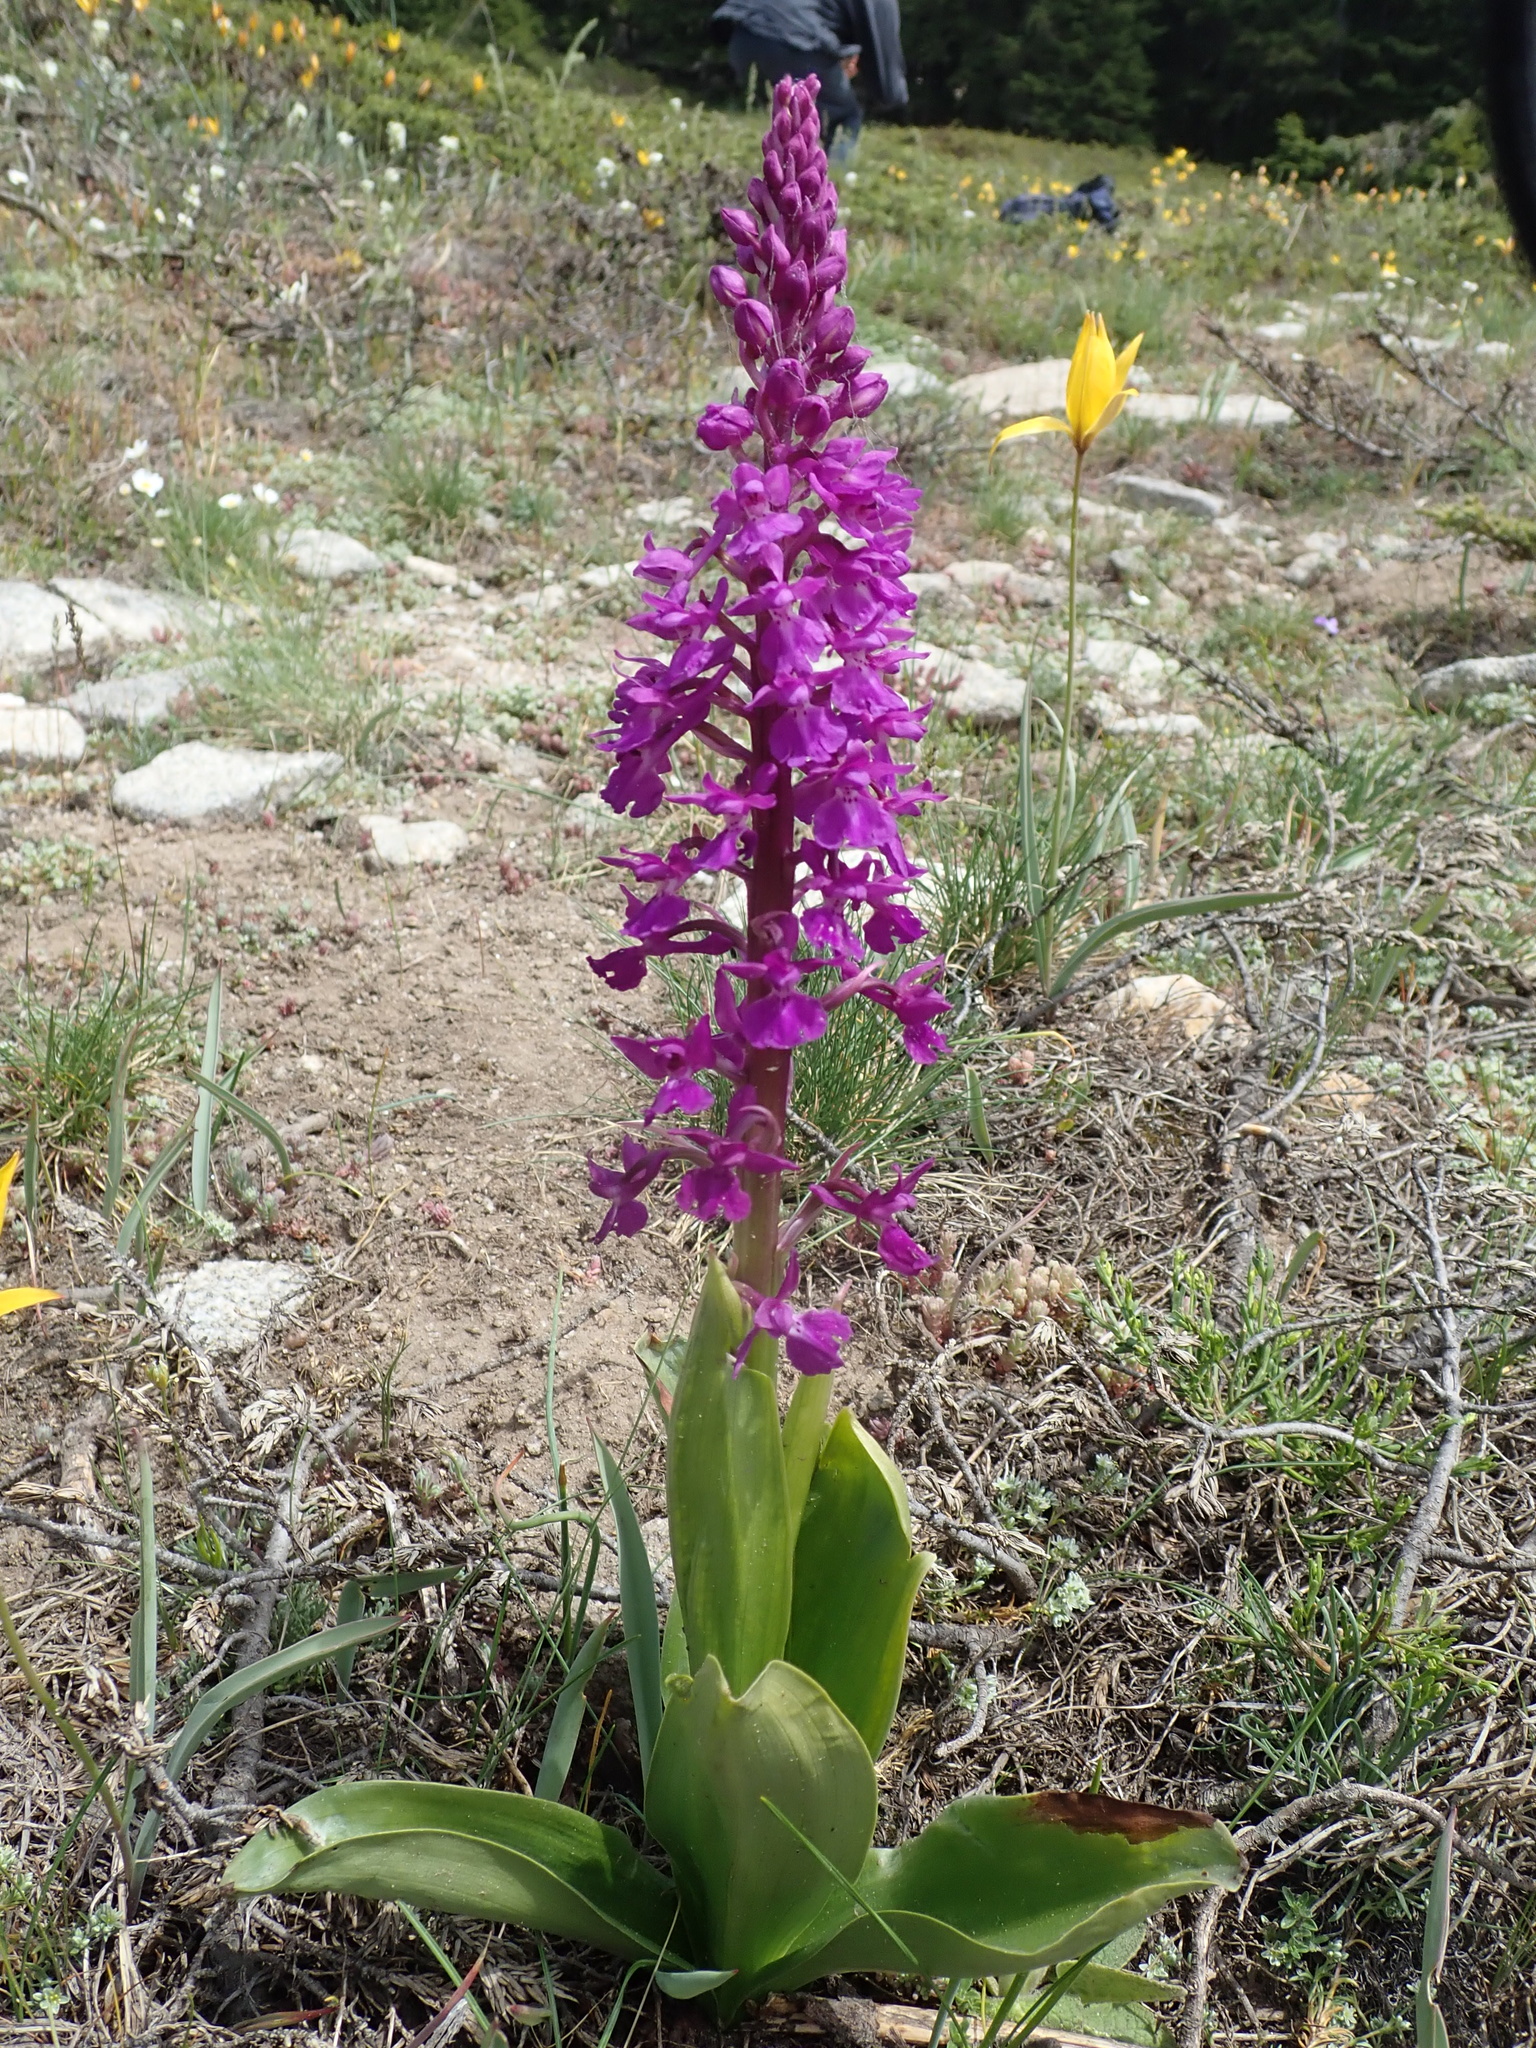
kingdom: Plantae
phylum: Tracheophyta
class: Liliopsida
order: Asparagales
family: Orchidaceae
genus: Orchis
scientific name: Orchis mascula
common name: Early-purple orchid
